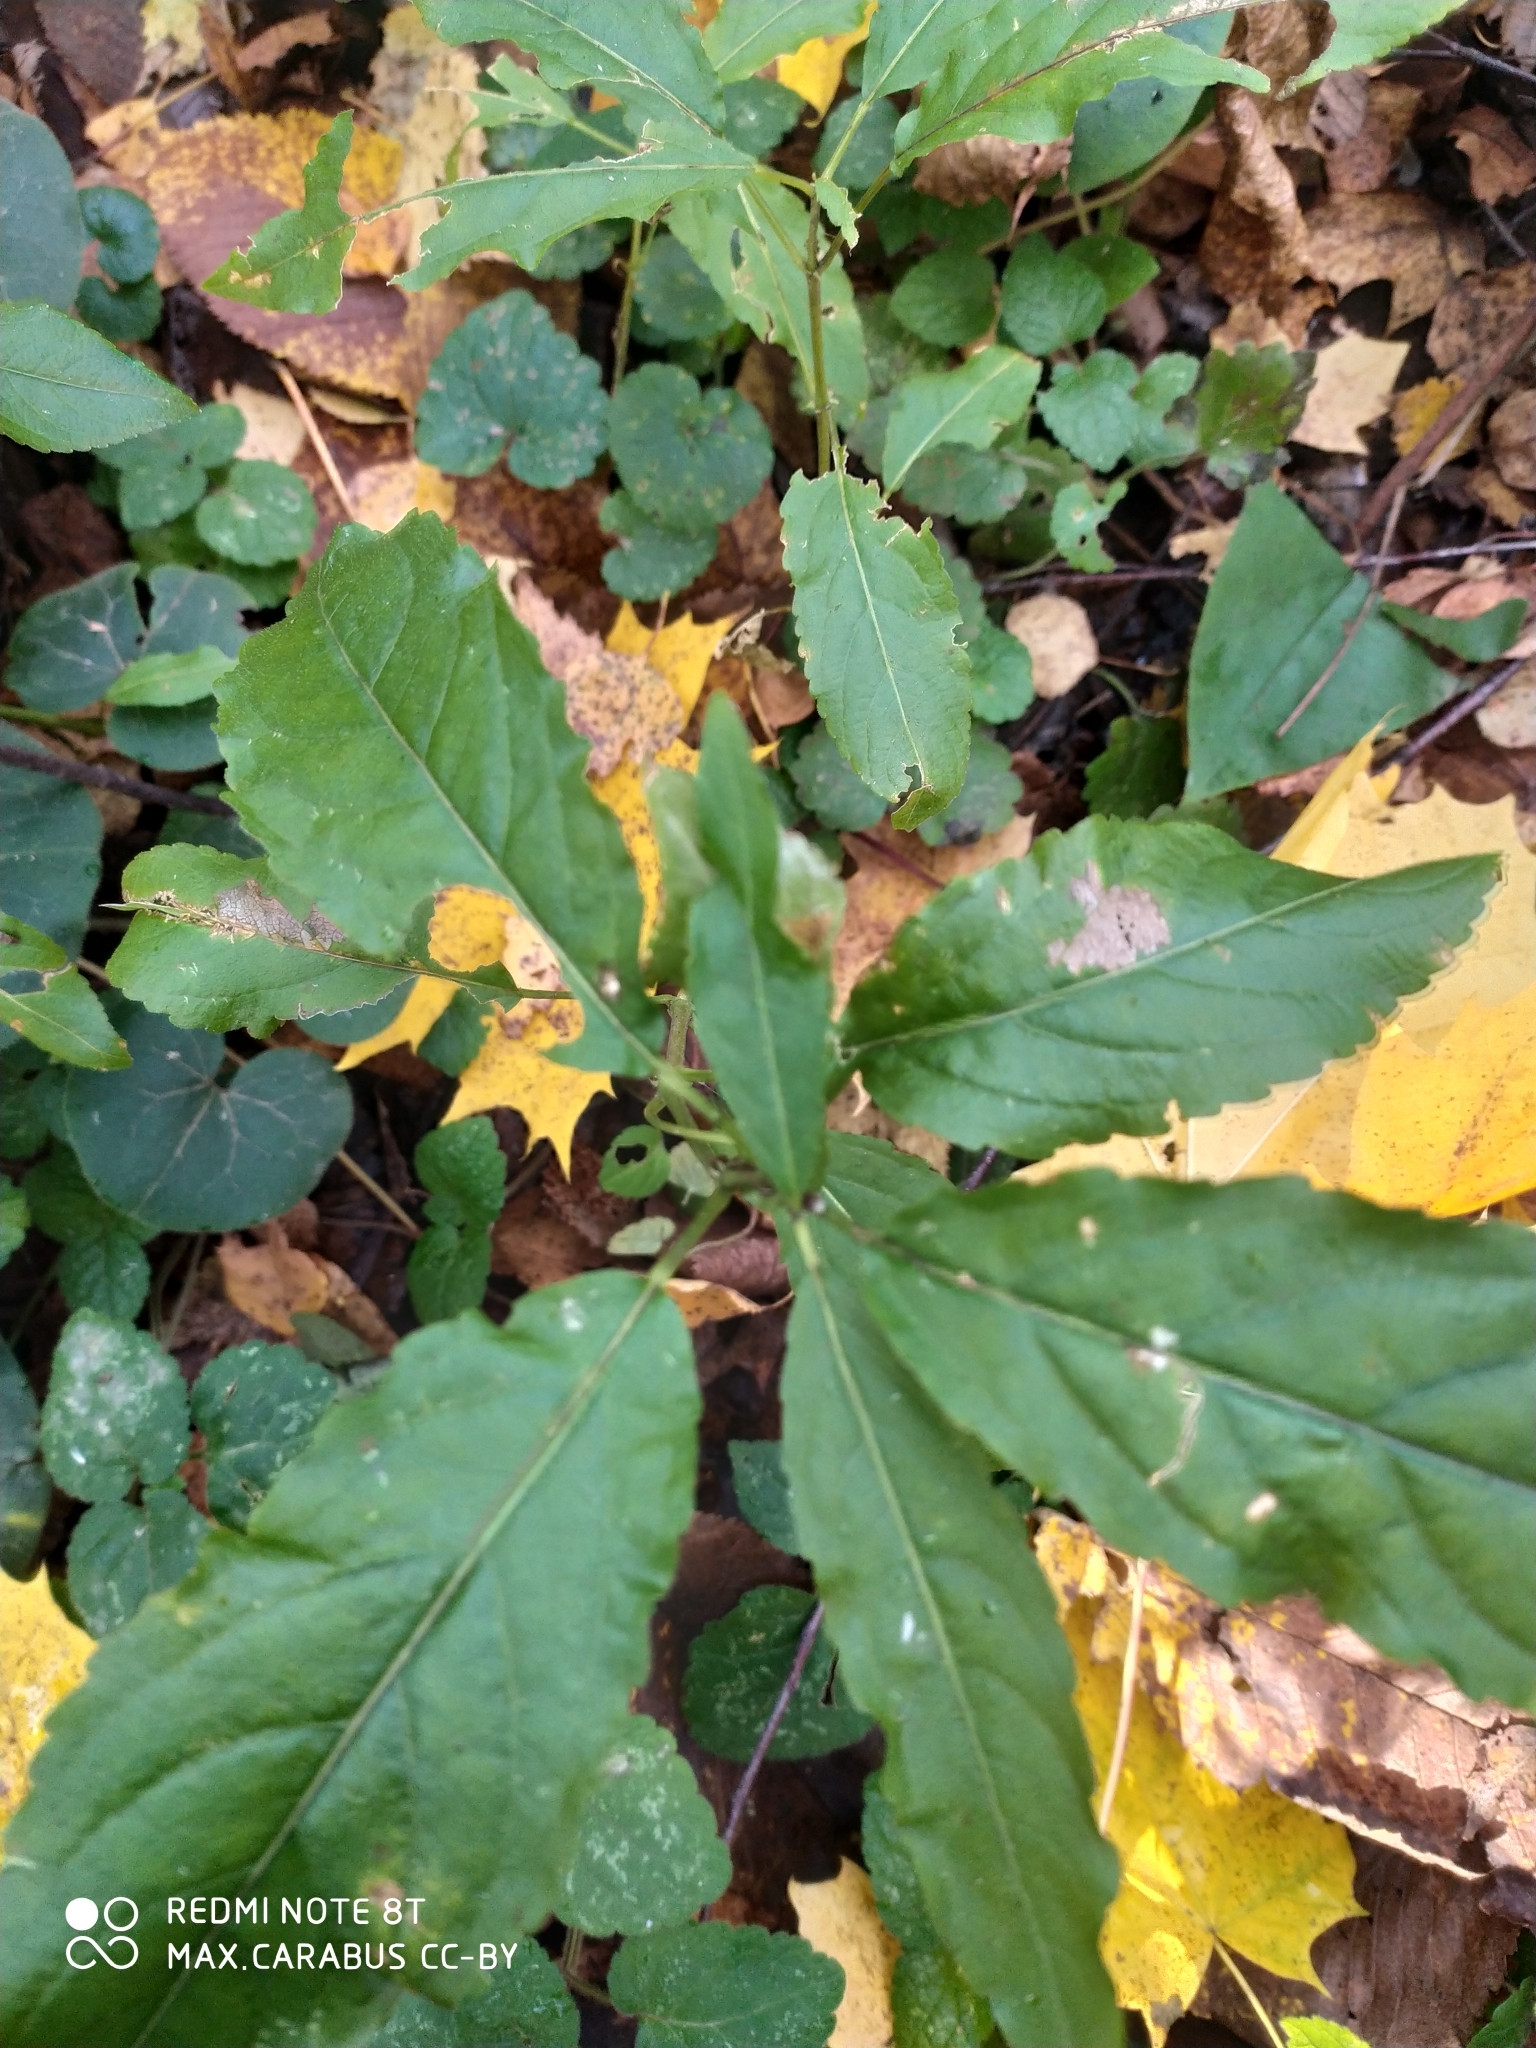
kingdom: Plantae
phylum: Tracheophyta
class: Magnoliopsida
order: Malpighiales
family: Euphorbiaceae
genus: Mercurialis
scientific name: Mercurialis perennis
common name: Dog mercury
